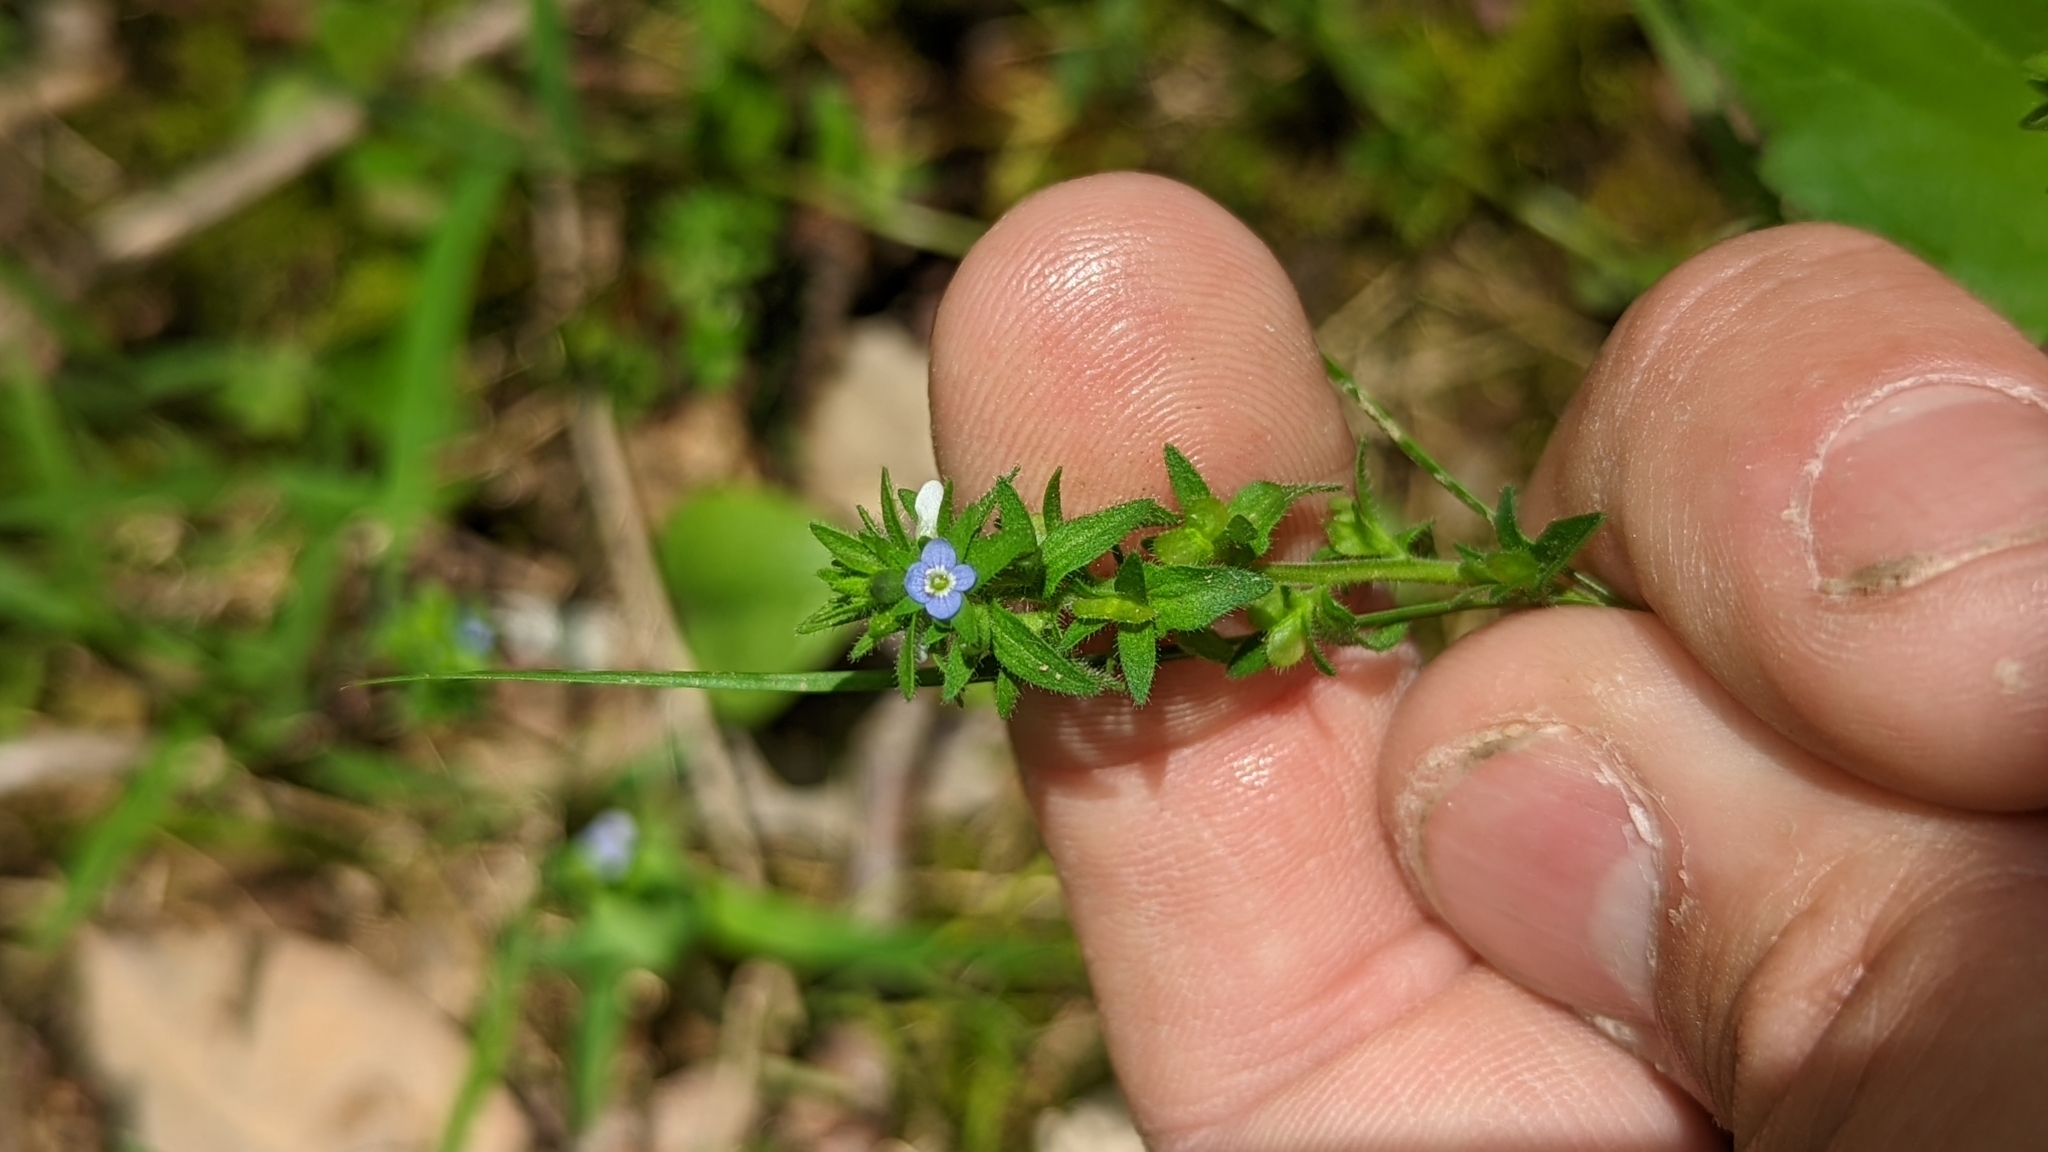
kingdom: Plantae
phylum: Tracheophyta
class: Magnoliopsida
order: Lamiales
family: Plantaginaceae
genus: Veronica
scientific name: Veronica arvensis
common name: Corn speedwell
